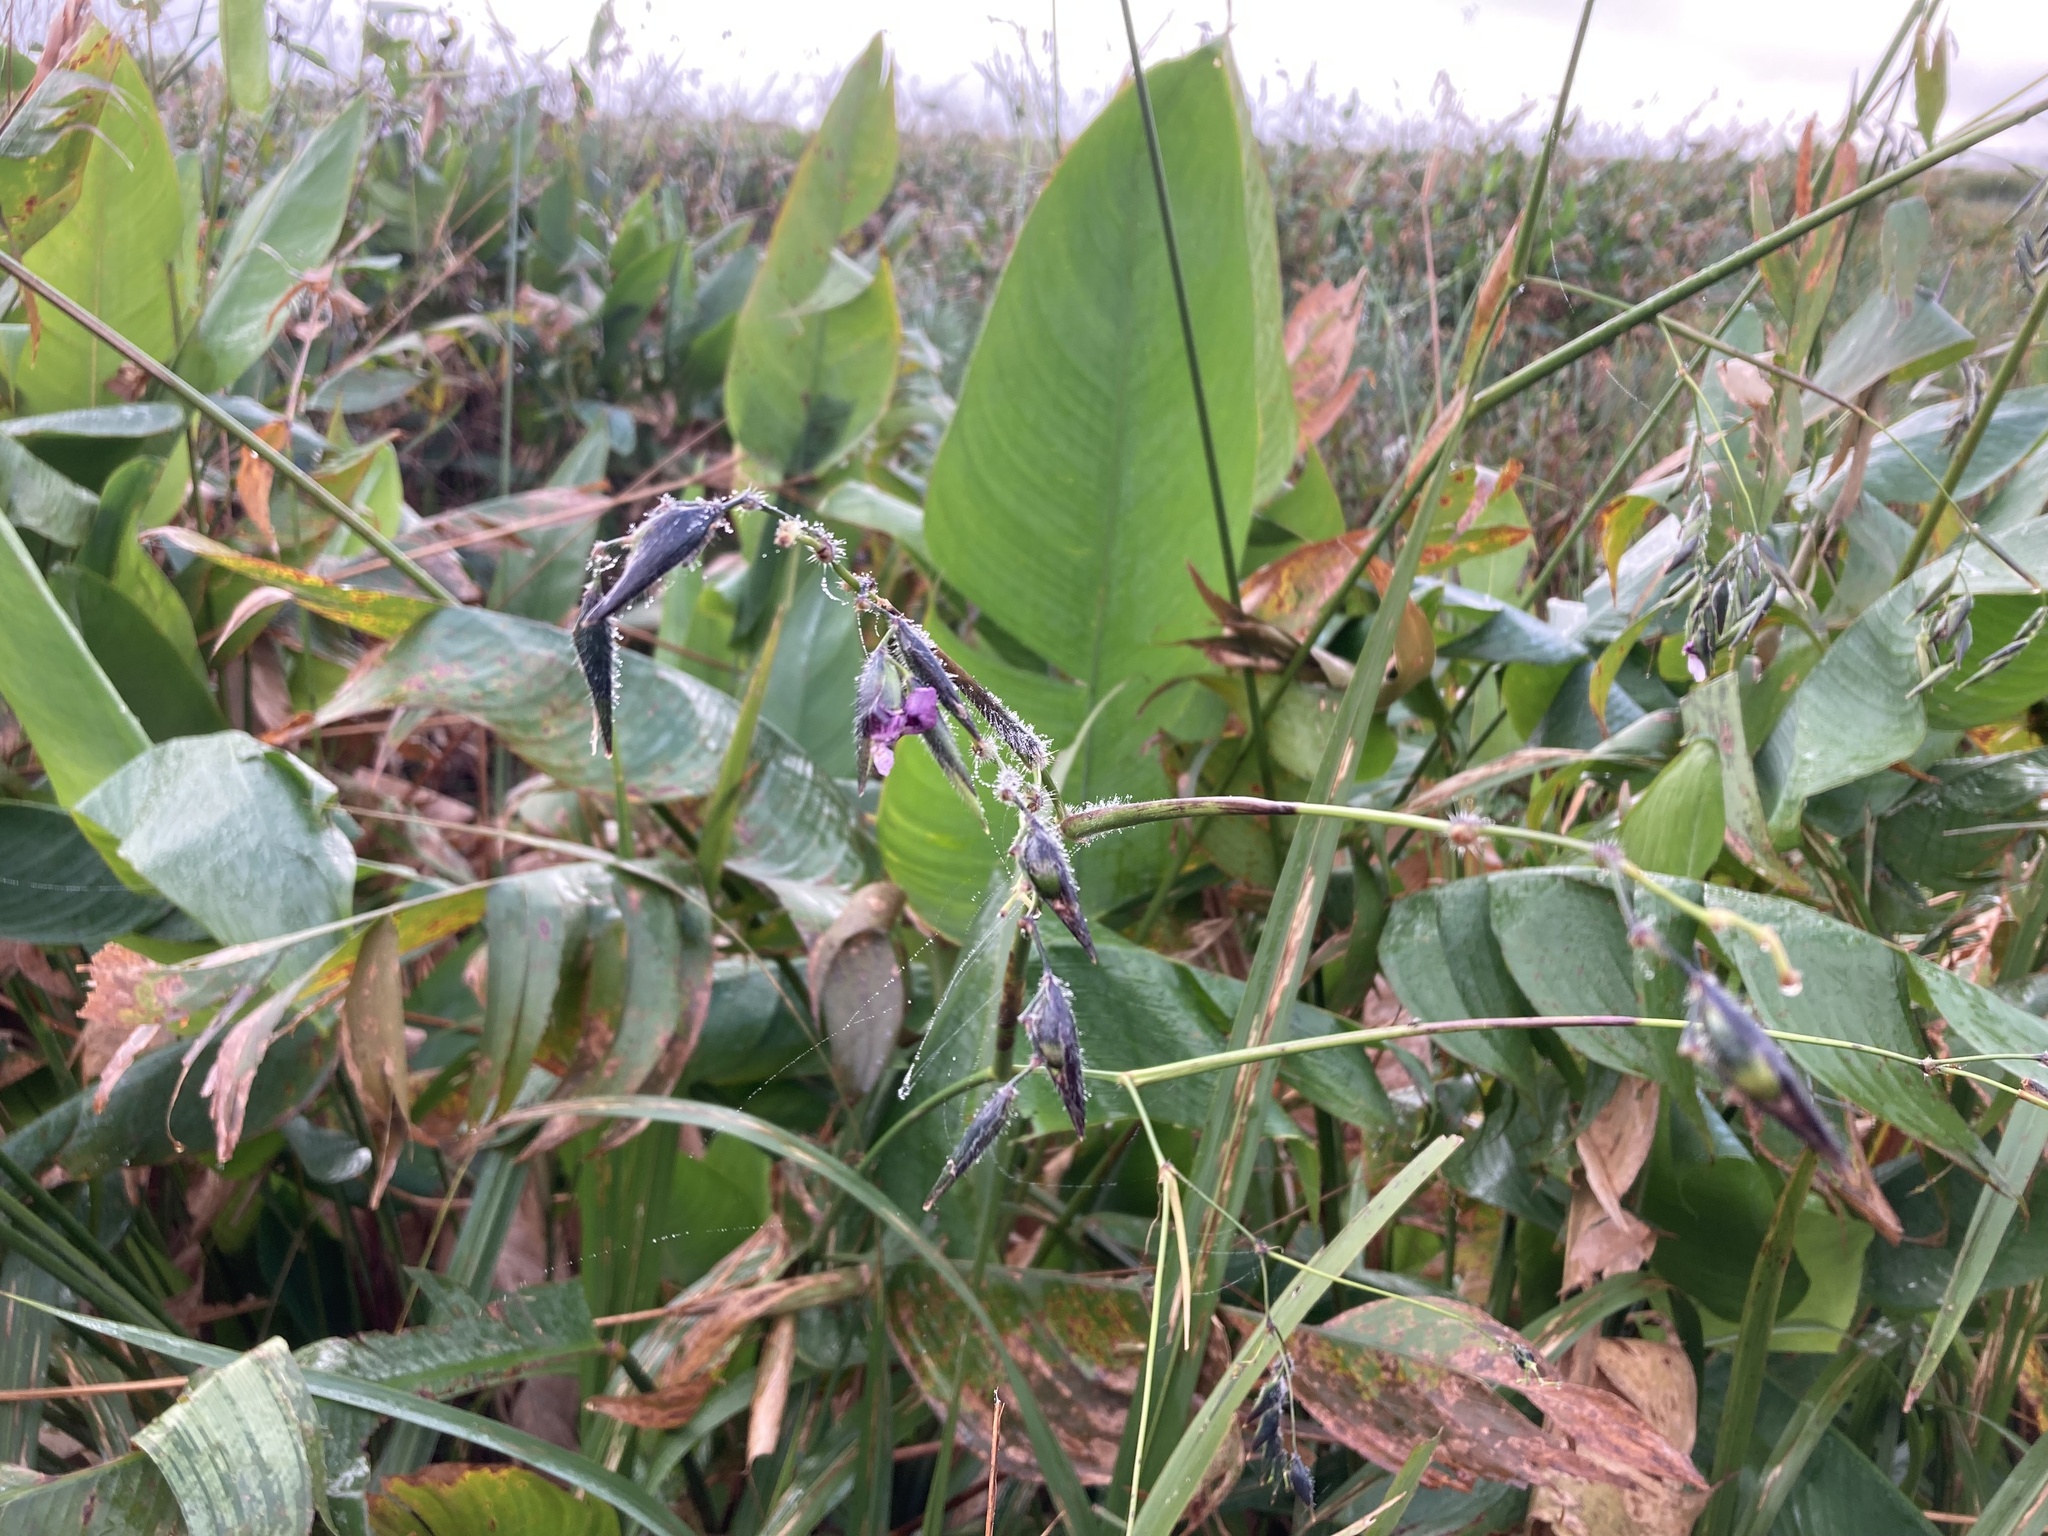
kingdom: Plantae
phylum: Tracheophyta
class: Liliopsida
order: Zingiberales
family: Marantaceae
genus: Thalia
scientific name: Thalia geniculata
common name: Arrowroot
